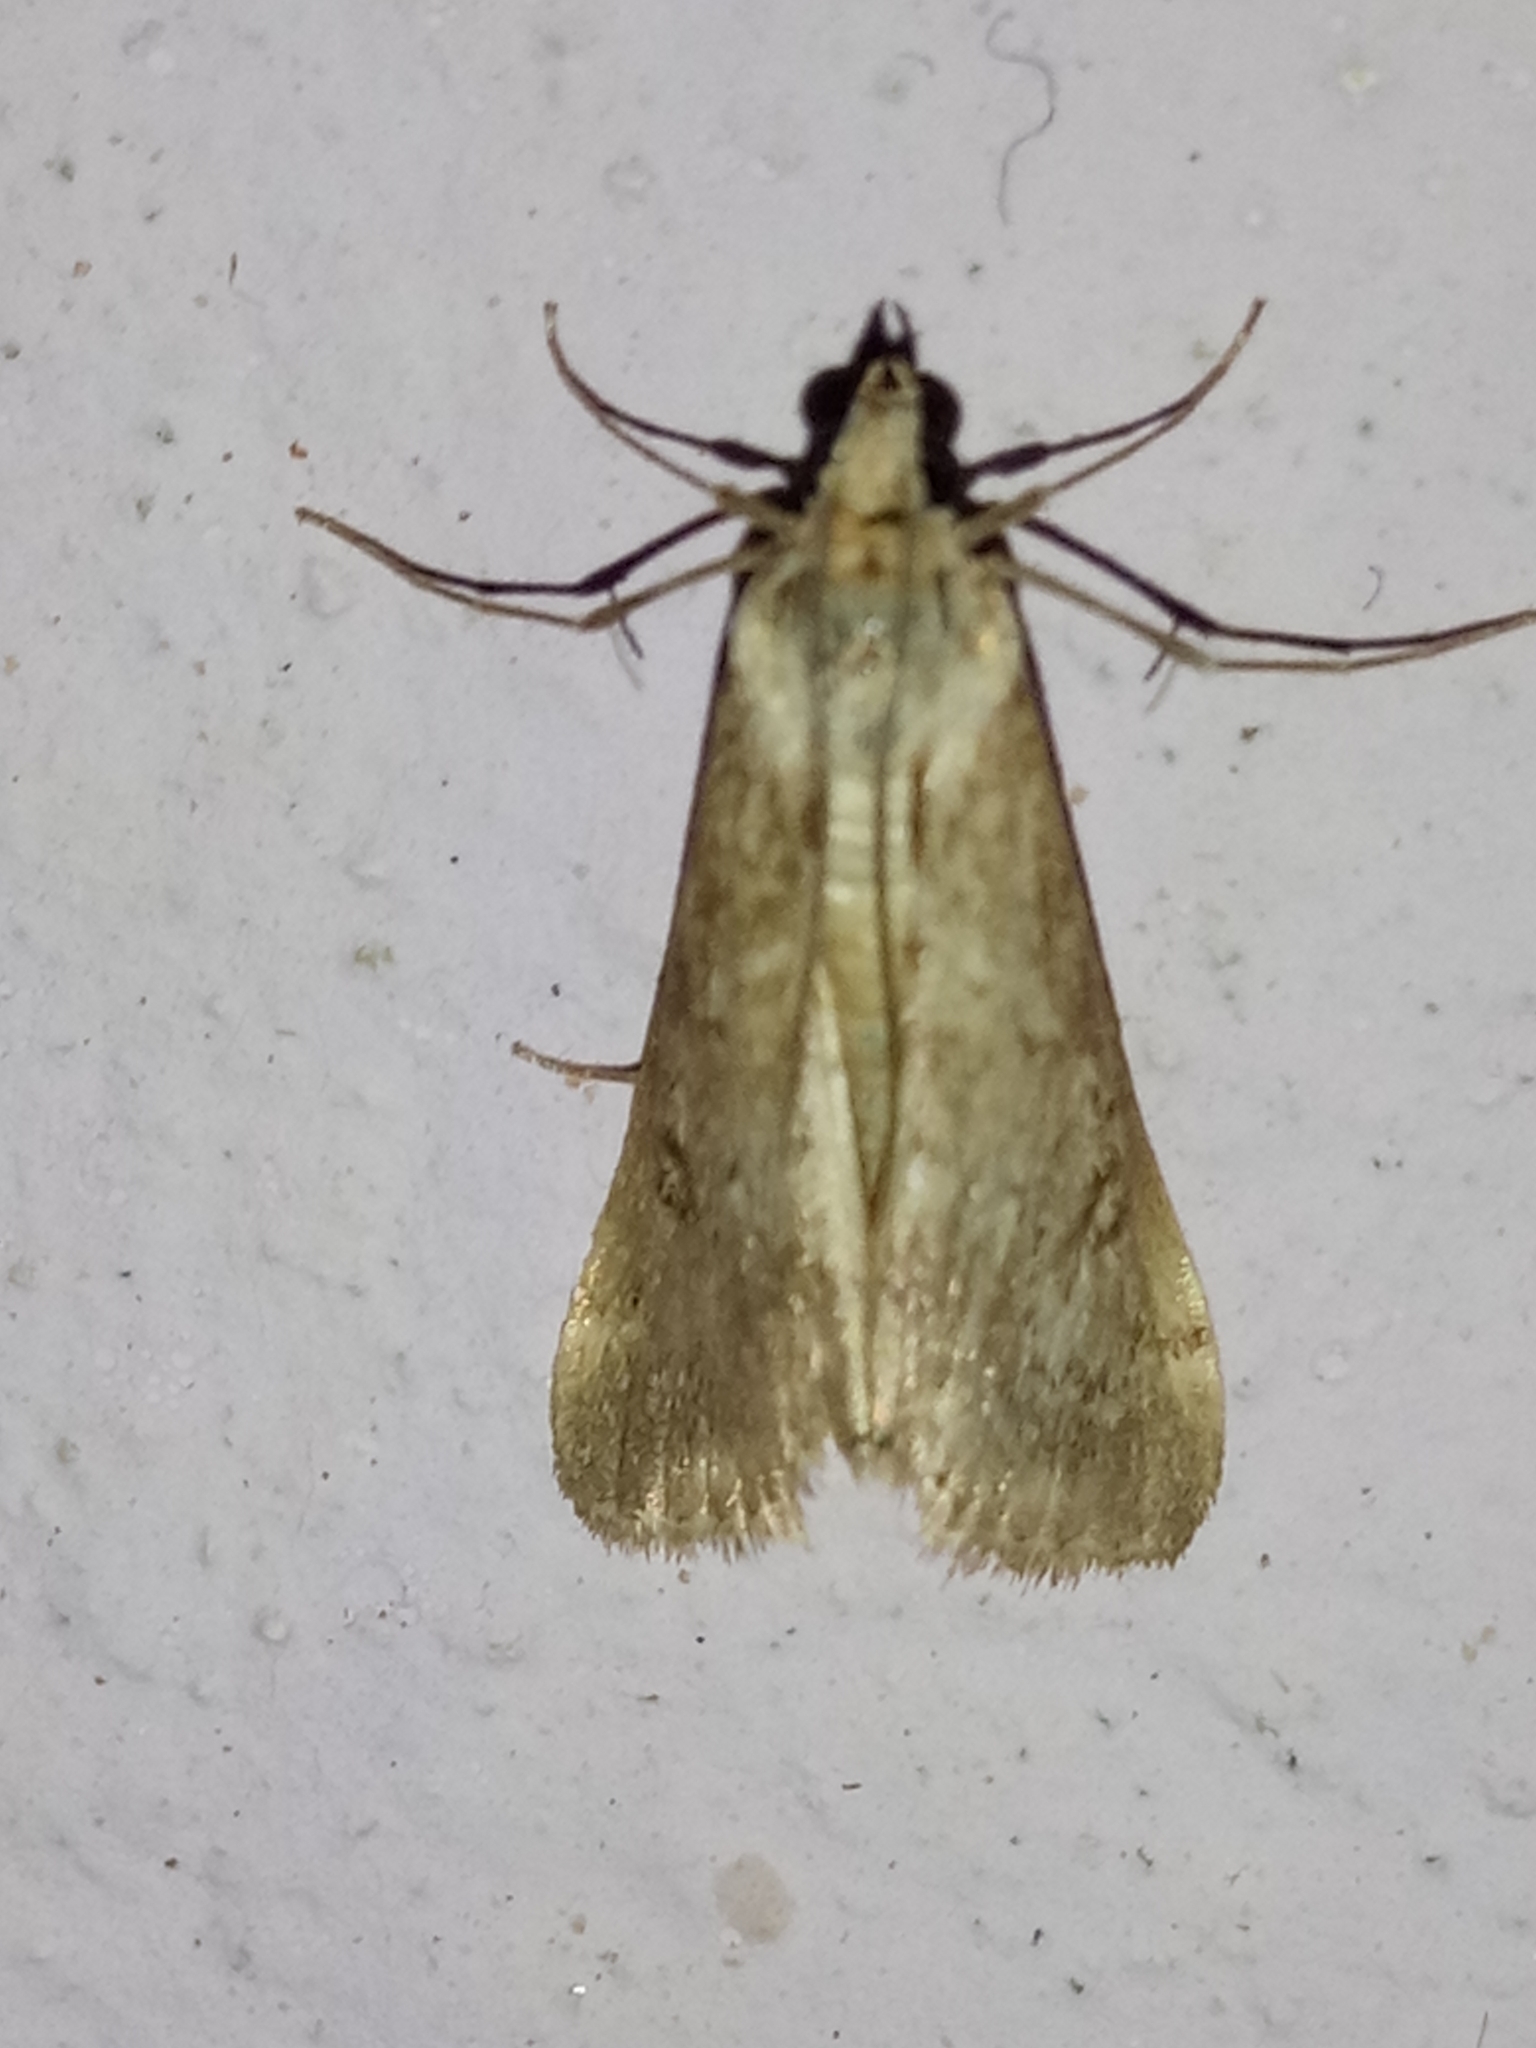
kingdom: Animalia
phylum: Arthropoda
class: Insecta
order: Lepidoptera
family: Crambidae
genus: Cornifrons
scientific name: Cornifrons ulceratalis
